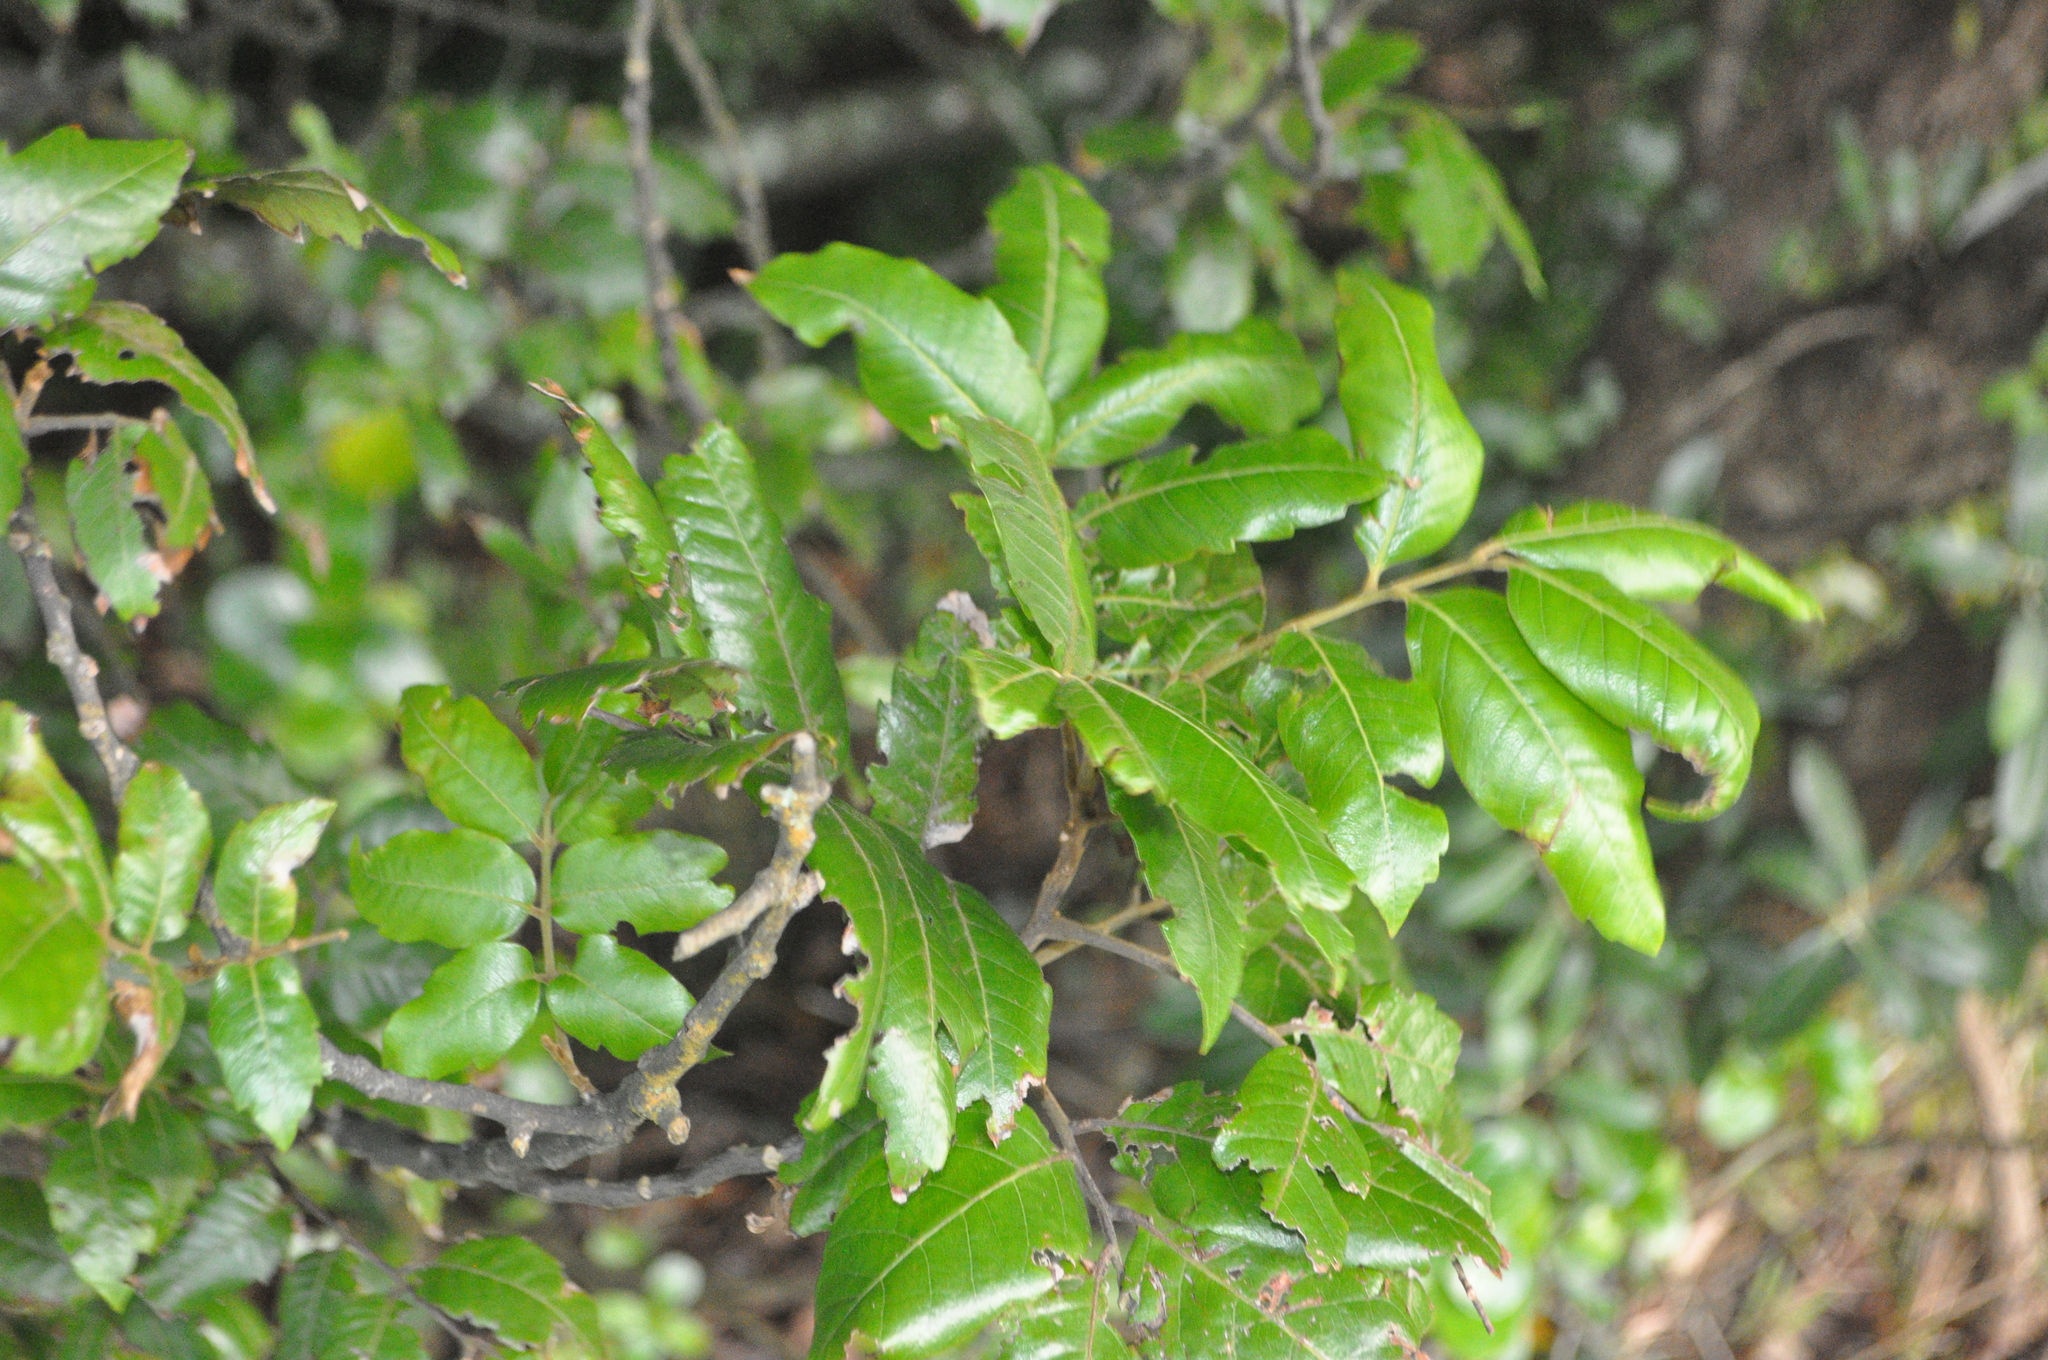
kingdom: Plantae
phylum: Tracheophyta
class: Magnoliopsida
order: Sapindales
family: Sapindaceae
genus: Alectryon
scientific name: Alectryon excelsus
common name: Three kings titoki
